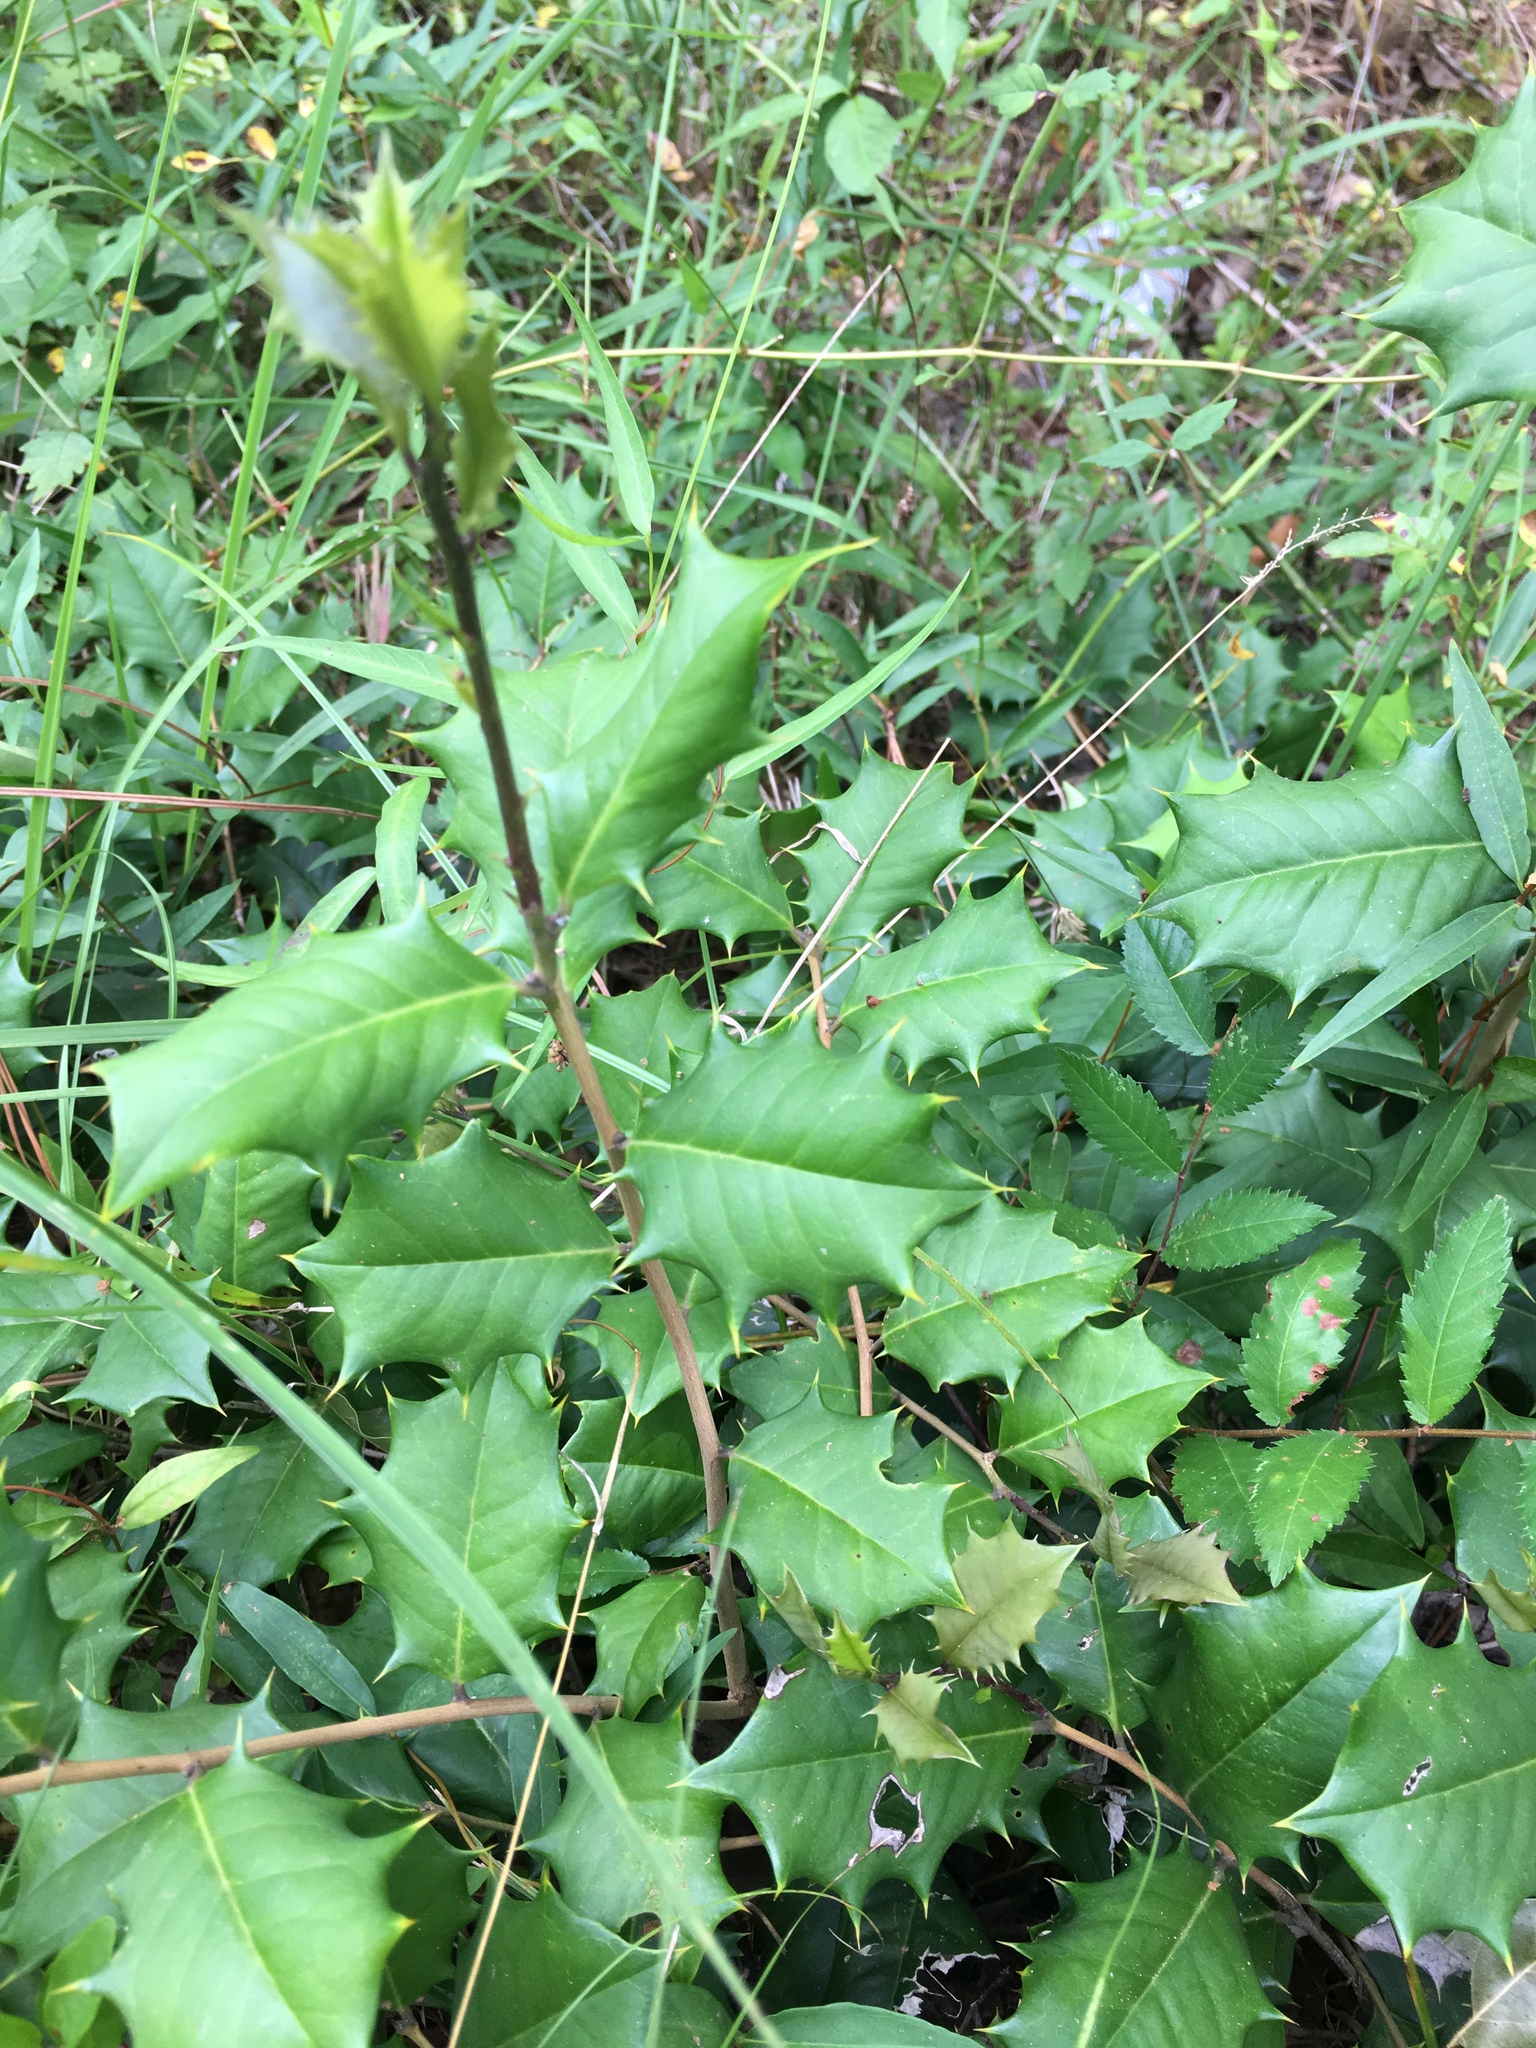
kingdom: Plantae
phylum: Tracheophyta
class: Magnoliopsida
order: Aquifoliales
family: Aquifoliaceae
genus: Ilex
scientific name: Ilex opaca
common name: American holly
